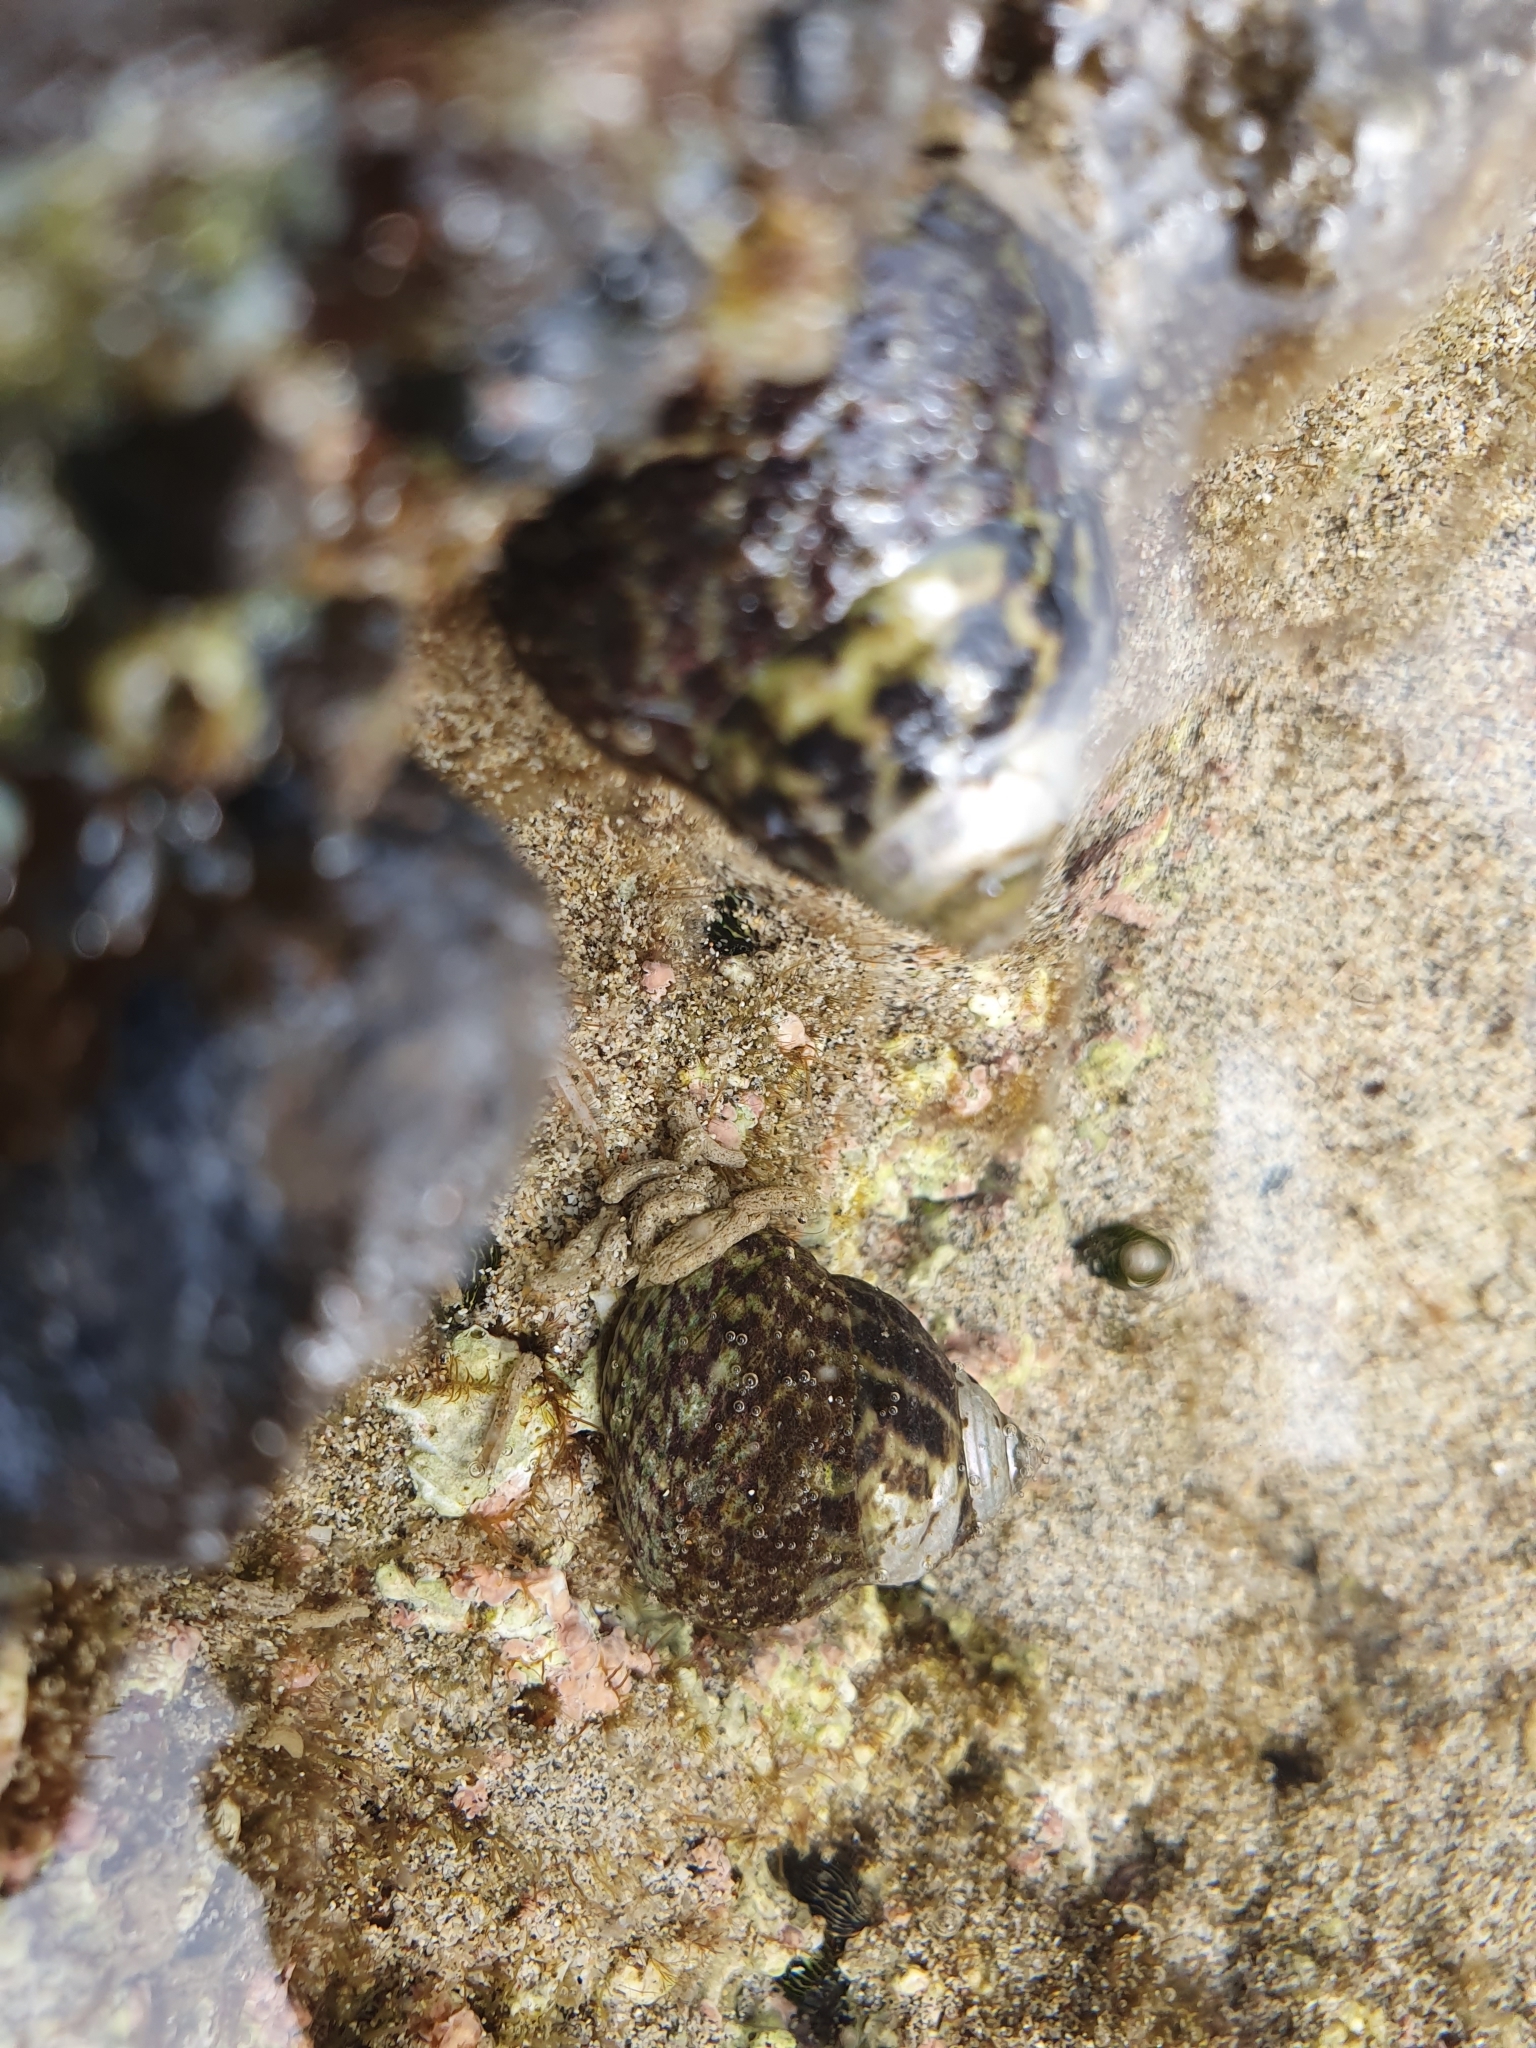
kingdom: Animalia
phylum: Mollusca
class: Gastropoda
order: Trochida
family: Trochidae
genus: Phorcus
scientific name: Phorcus sauciatus
